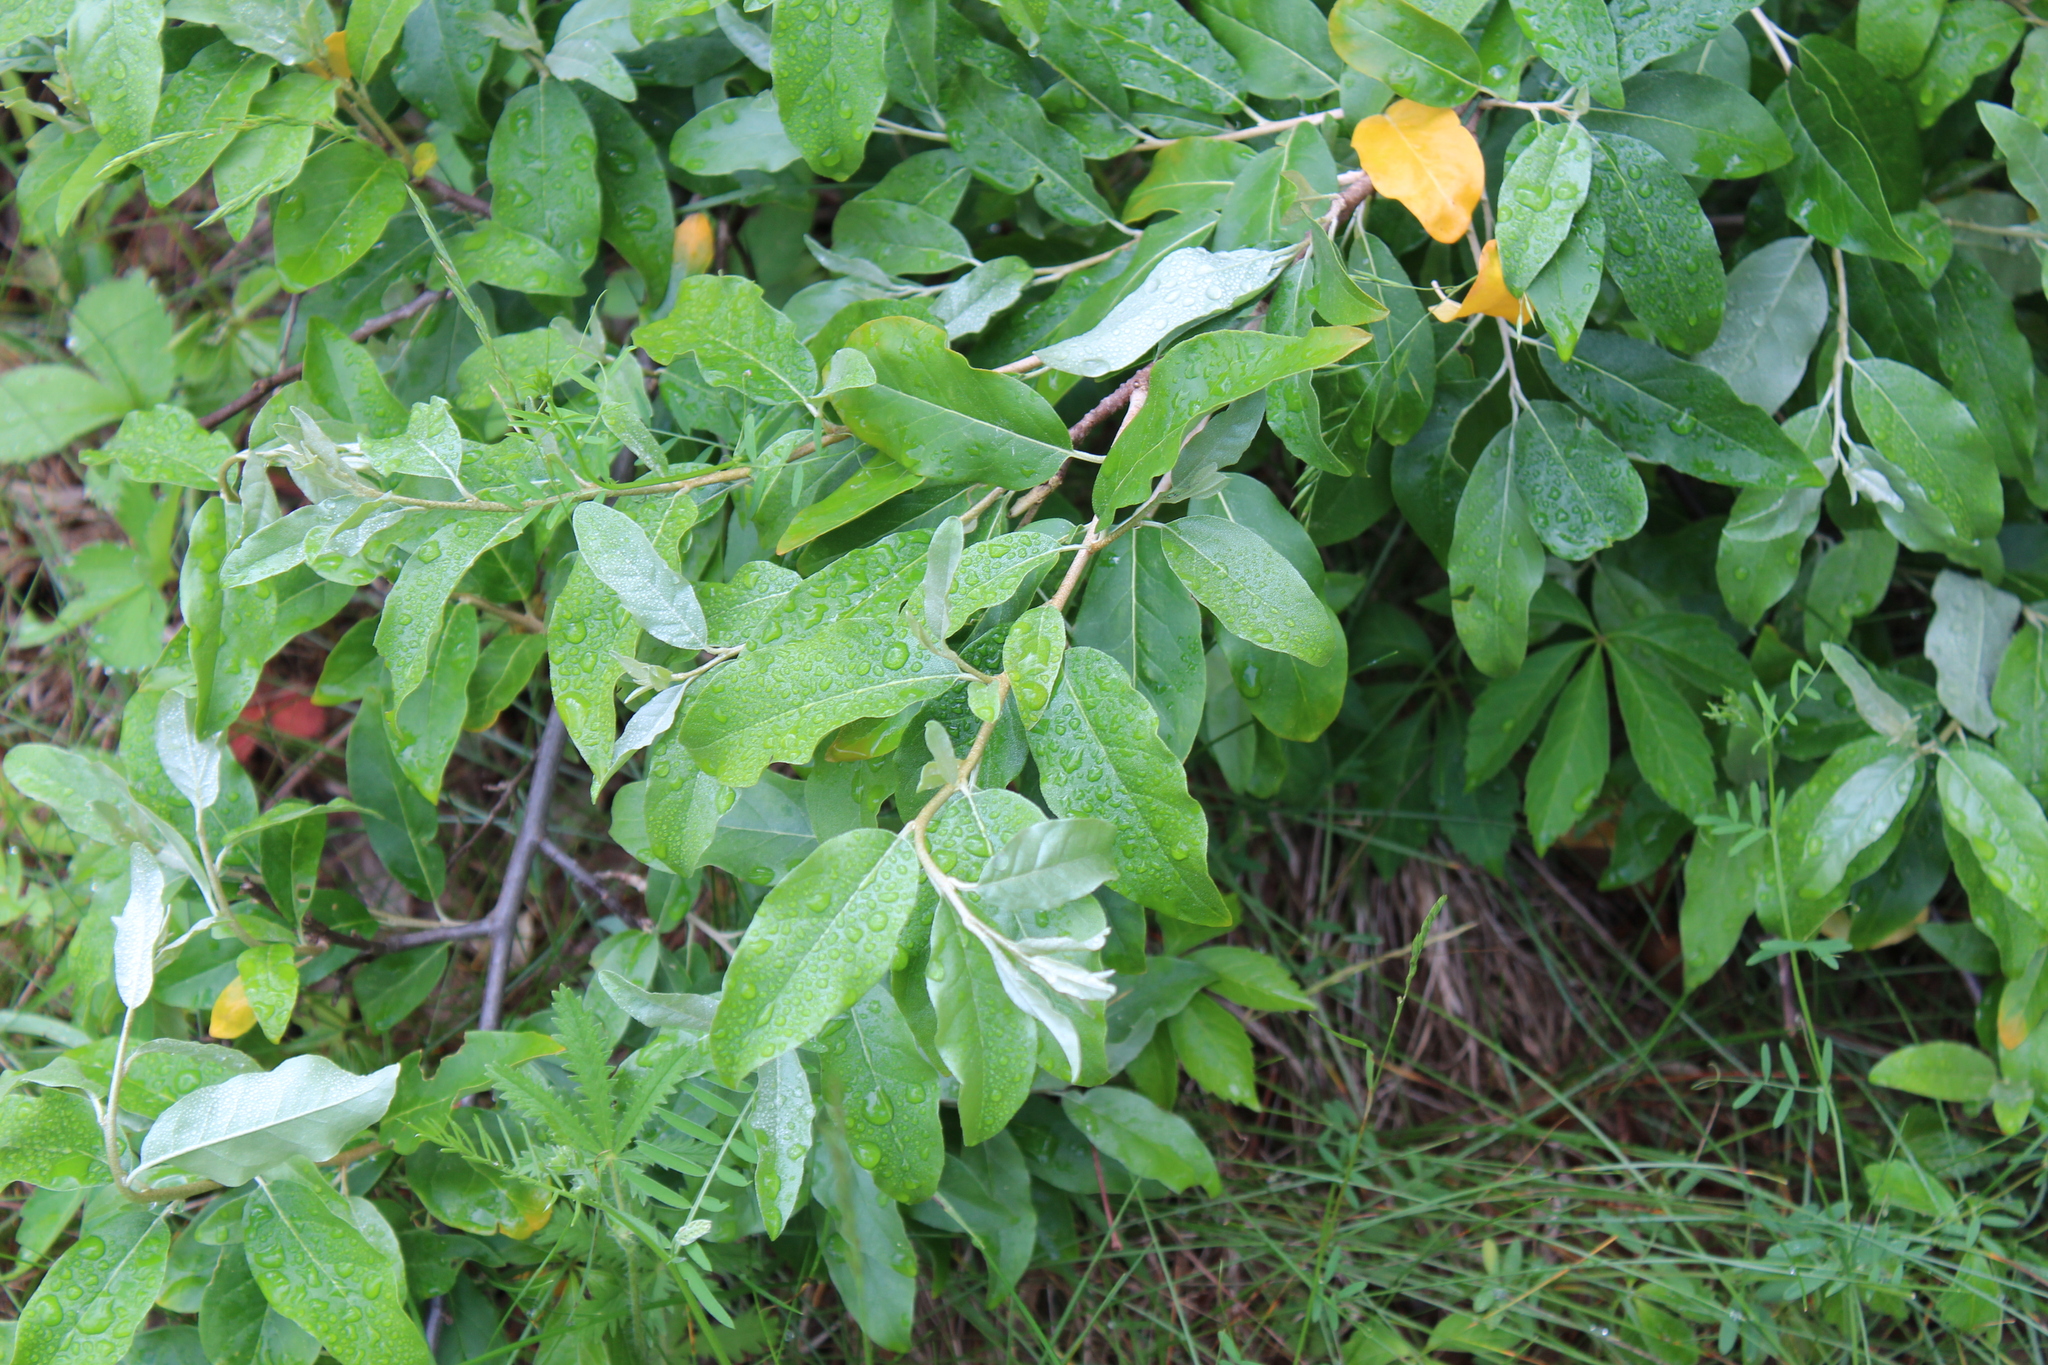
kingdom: Plantae
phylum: Tracheophyta
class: Magnoliopsida
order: Rosales
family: Elaeagnaceae
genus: Elaeagnus
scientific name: Elaeagnus umbellata
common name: Autumn olive
